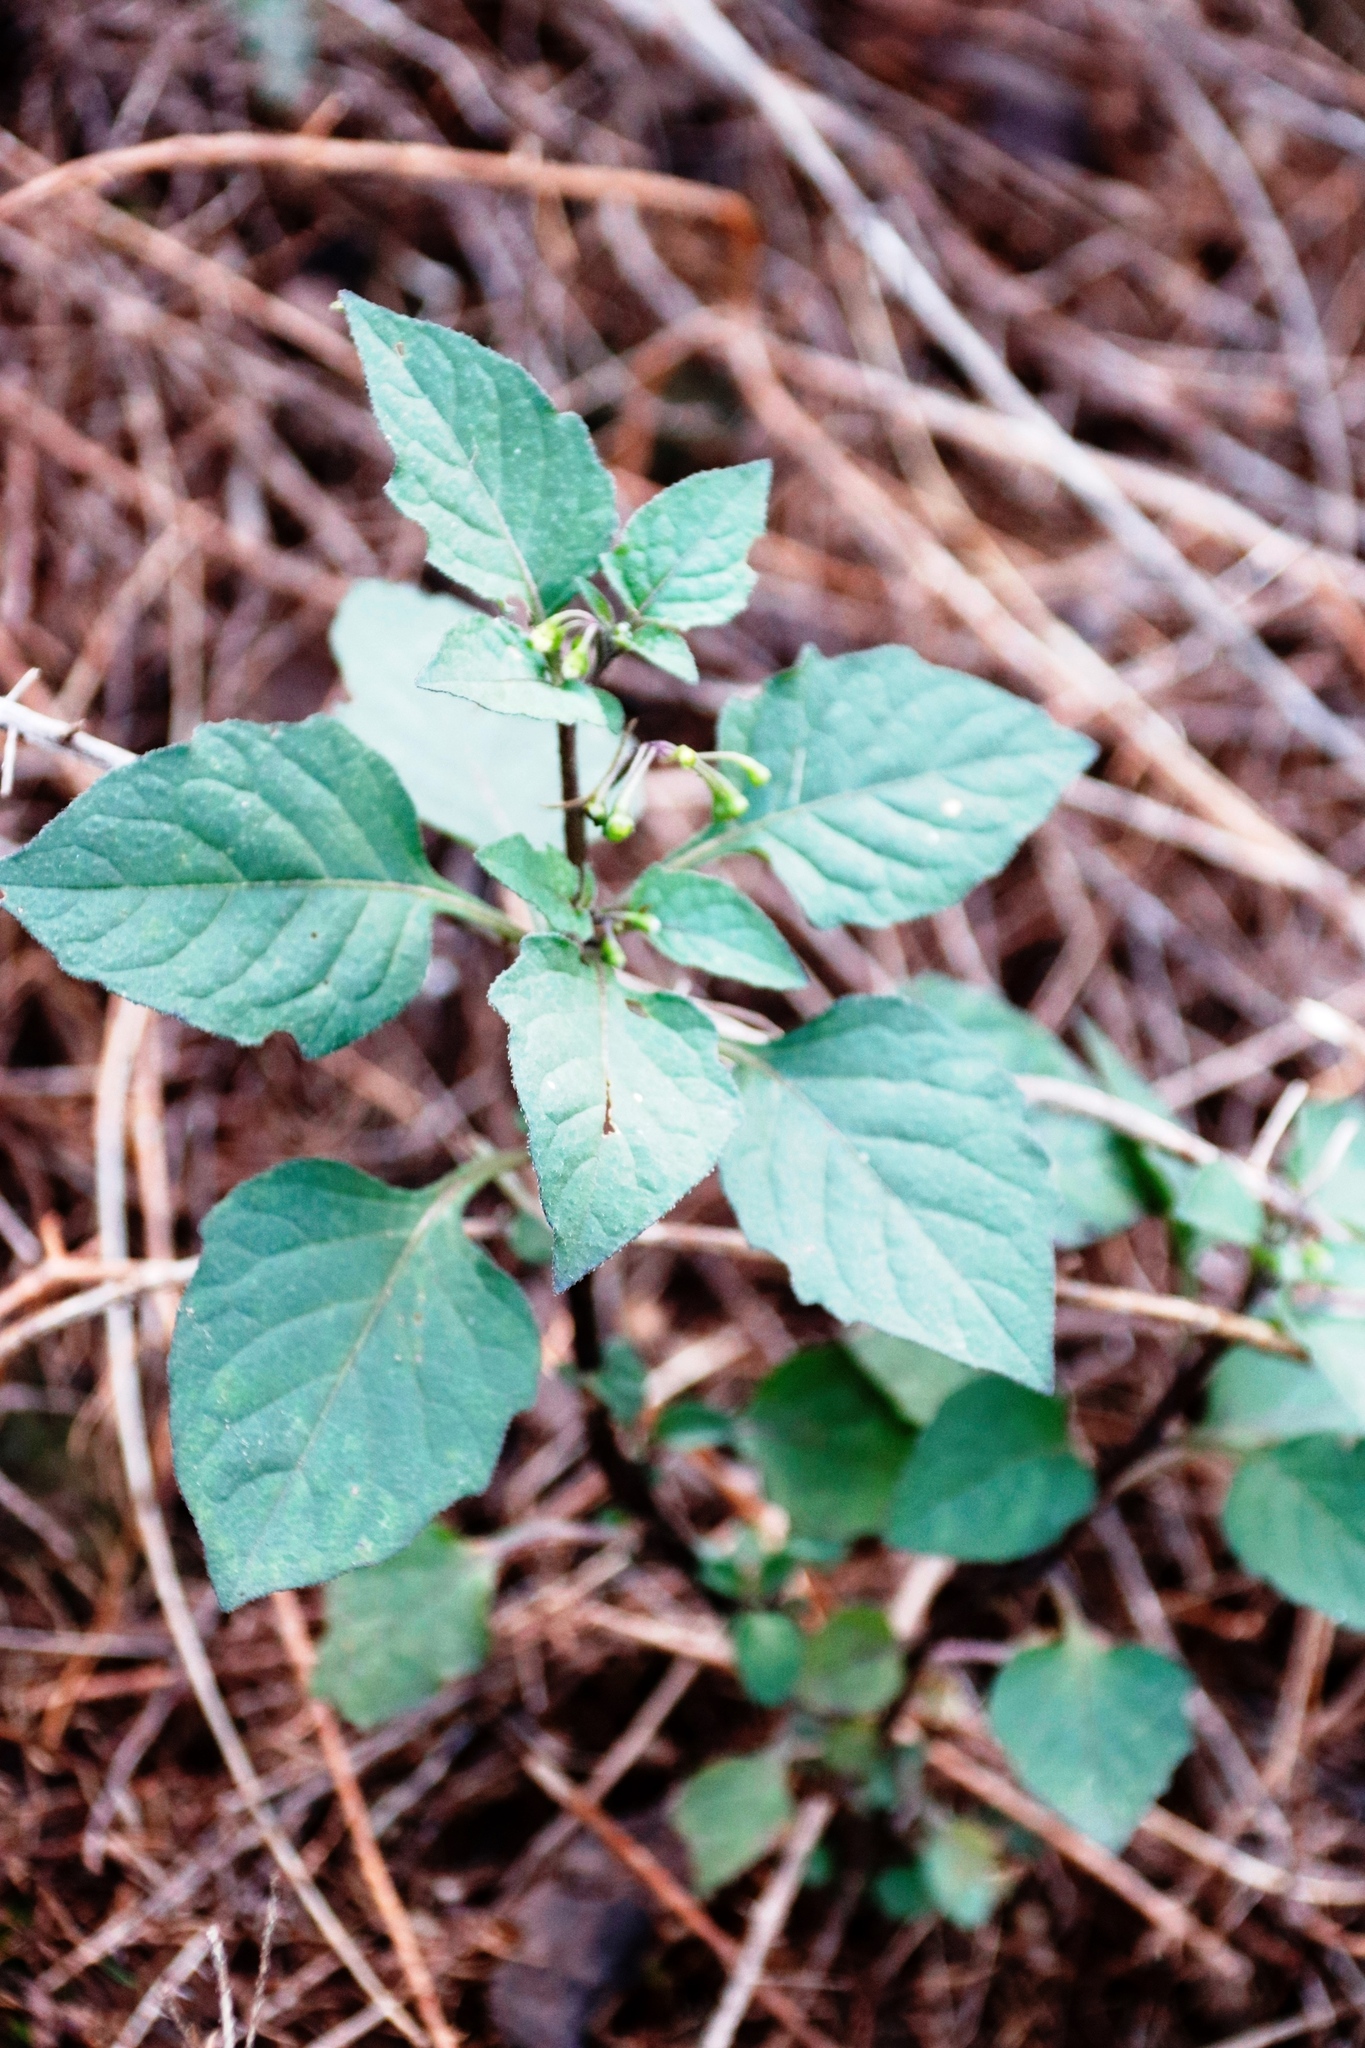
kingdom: Plantae
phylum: Tracheophyta
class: Magnoliopsida
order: Solanales
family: Solanaceae
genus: Solanum
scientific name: Solanum nigrum
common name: Black nightshade
